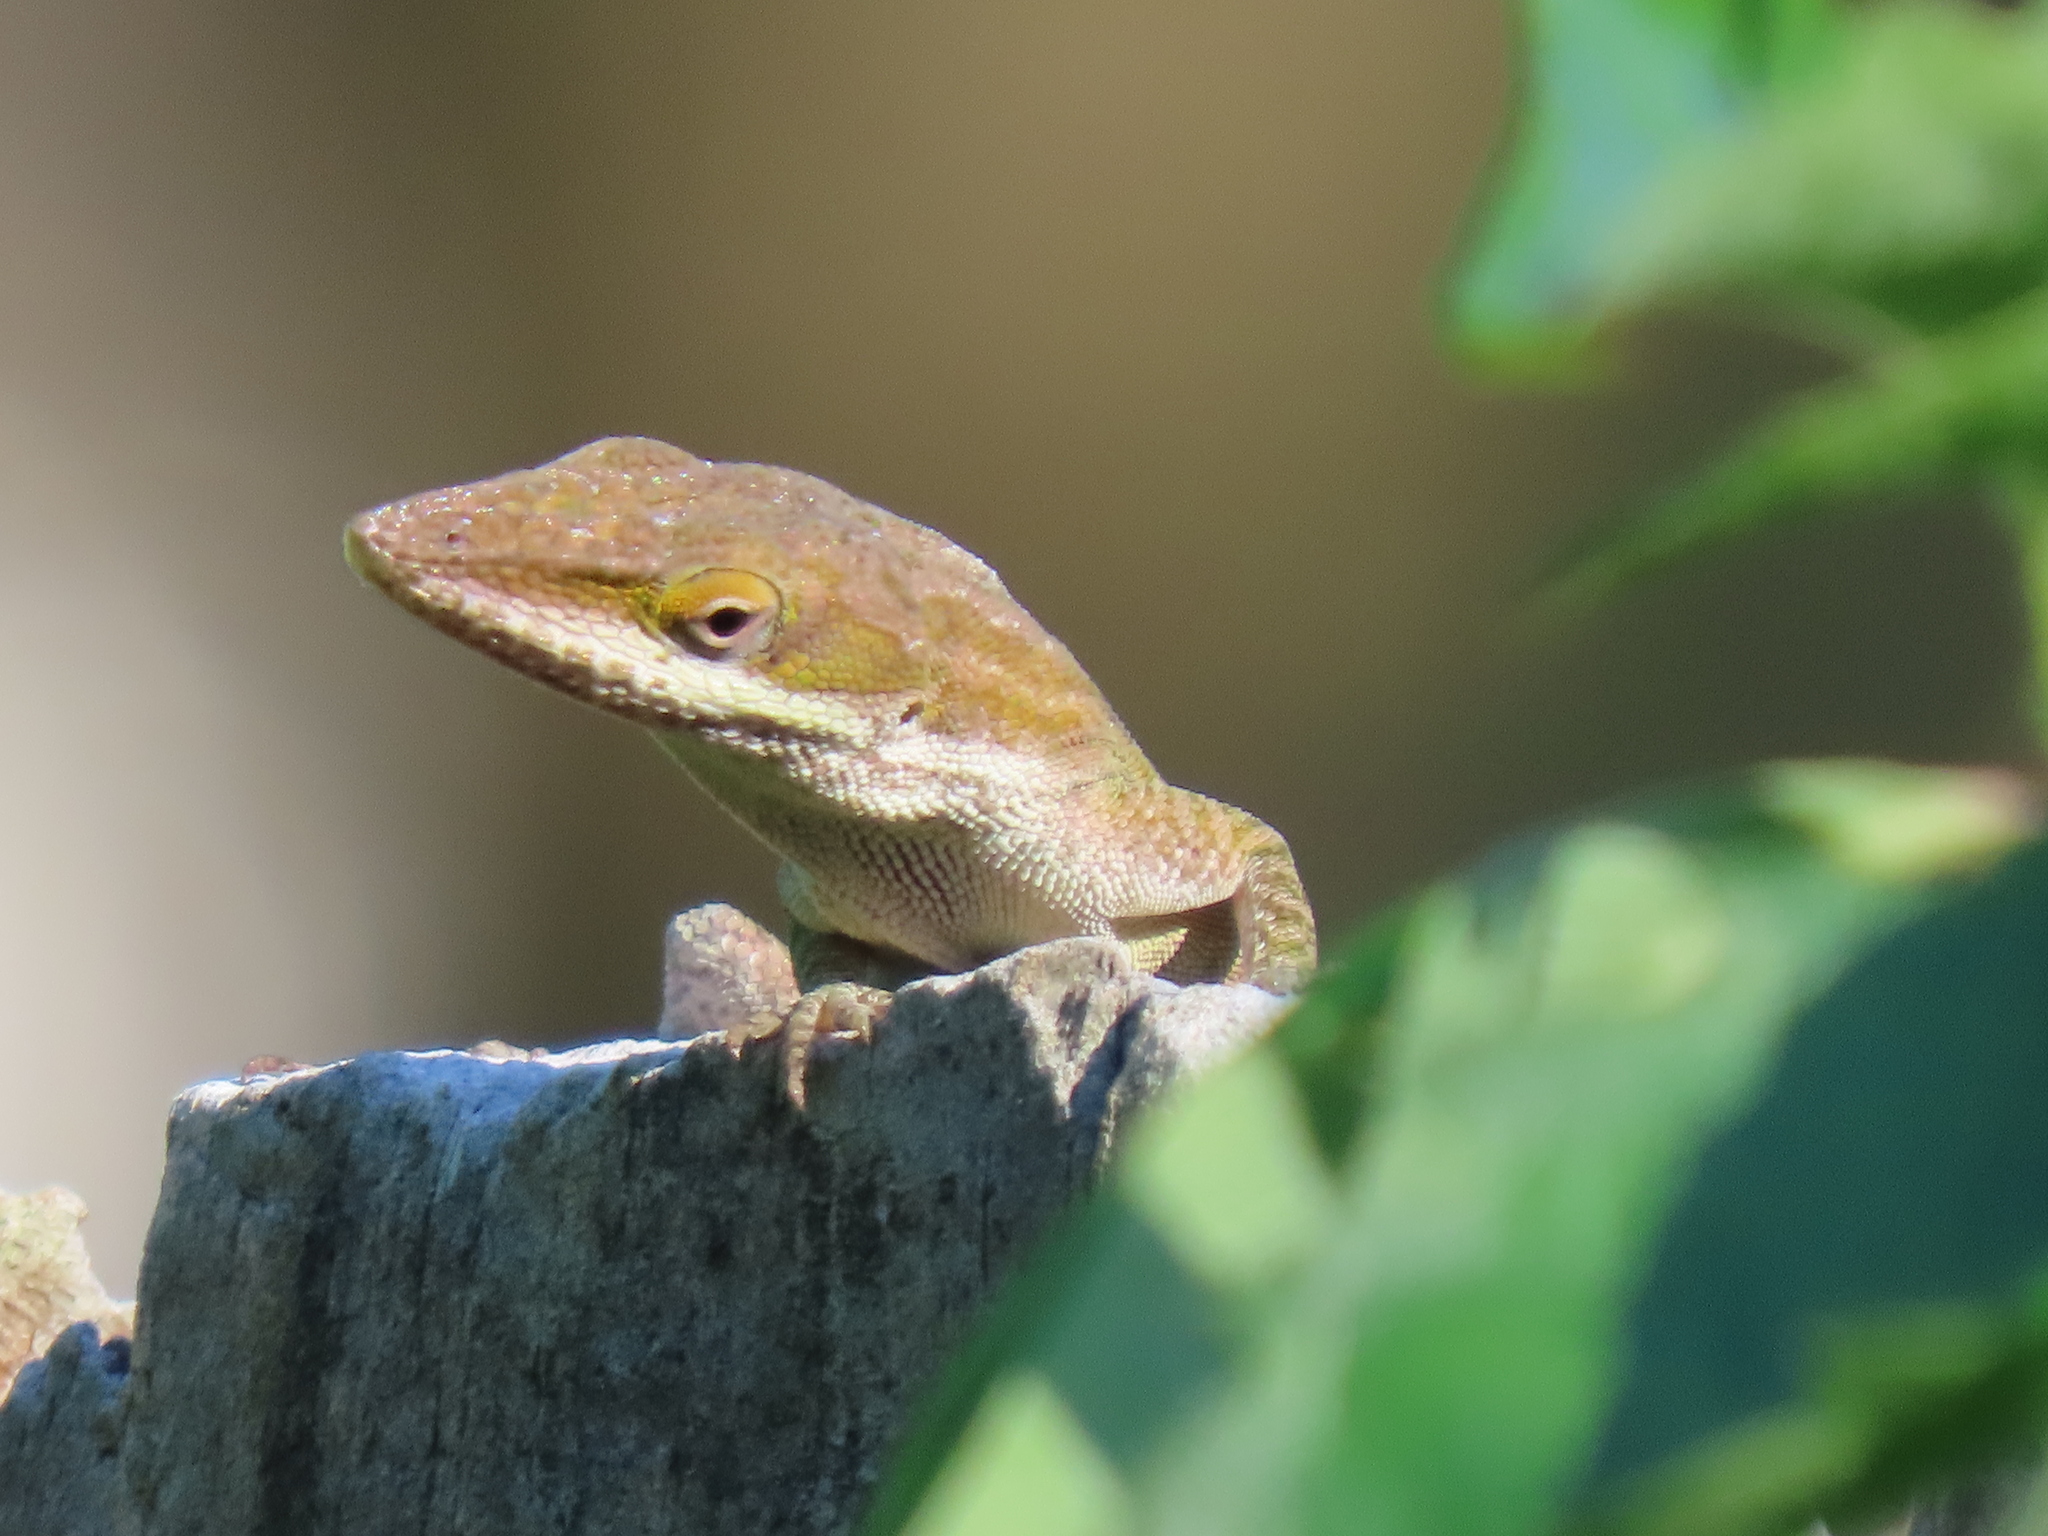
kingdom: Animalia
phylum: Chordata
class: Squamata
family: Dactyloidae
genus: Anolis
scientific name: Anolis carolinensis
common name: Green anole
